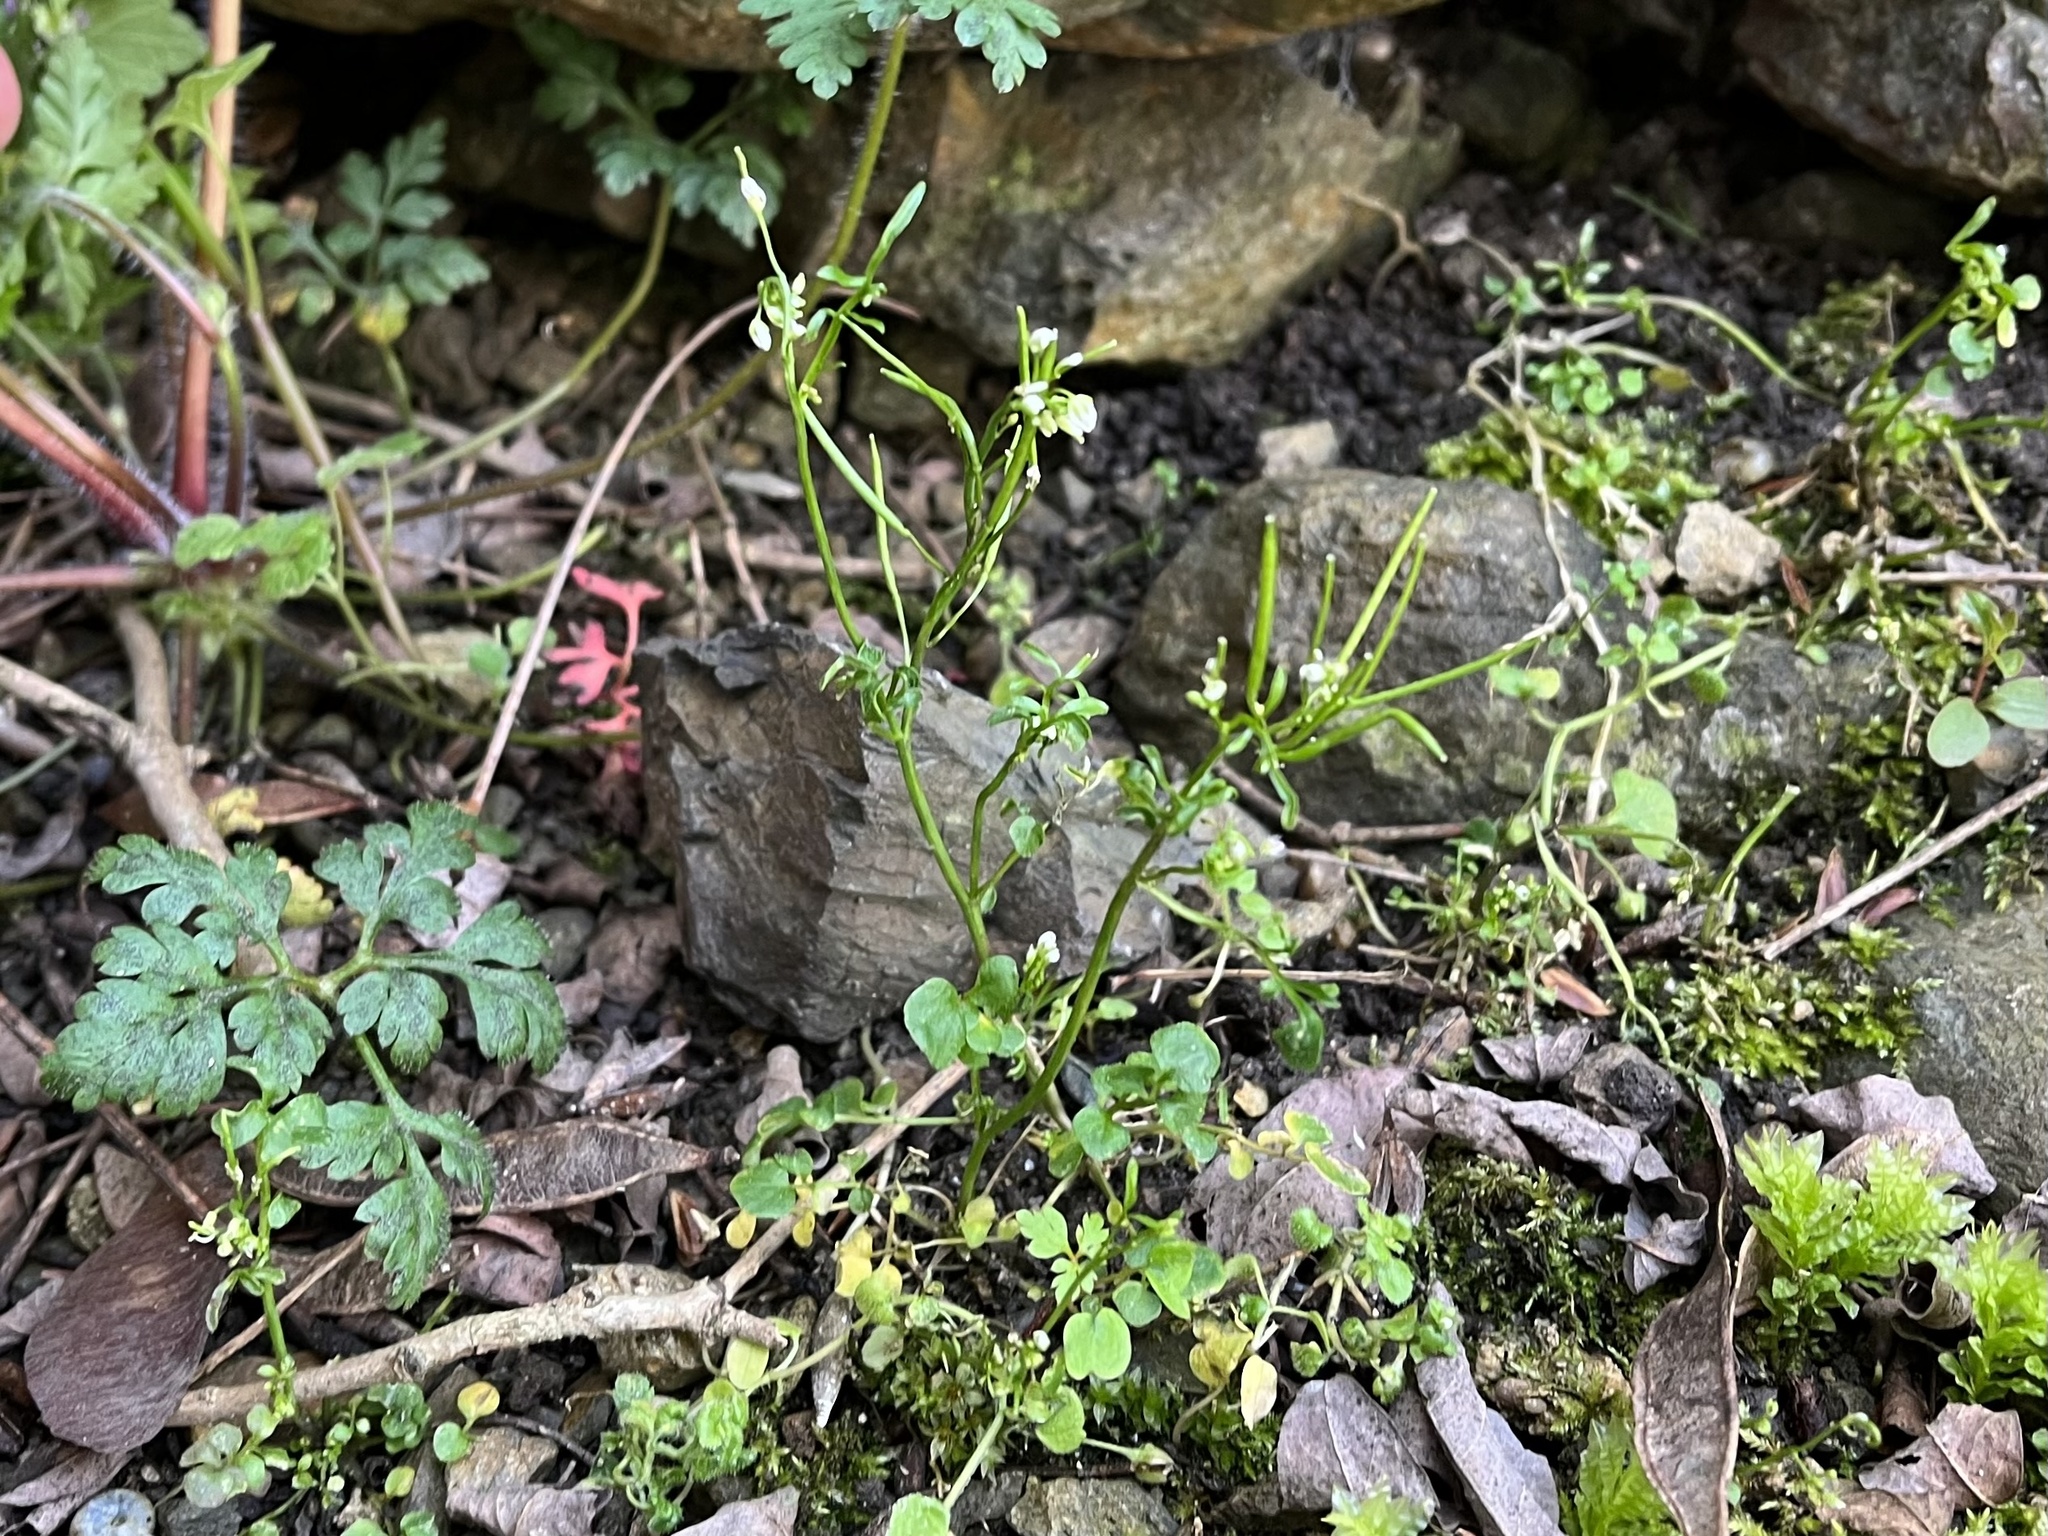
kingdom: Plantae
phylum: Tracheophyta
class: Magnoliopsida
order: Brassicales
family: Brassicaceae
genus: Cardamine
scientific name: Cardamine hirsuta
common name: Hairy bittercress
